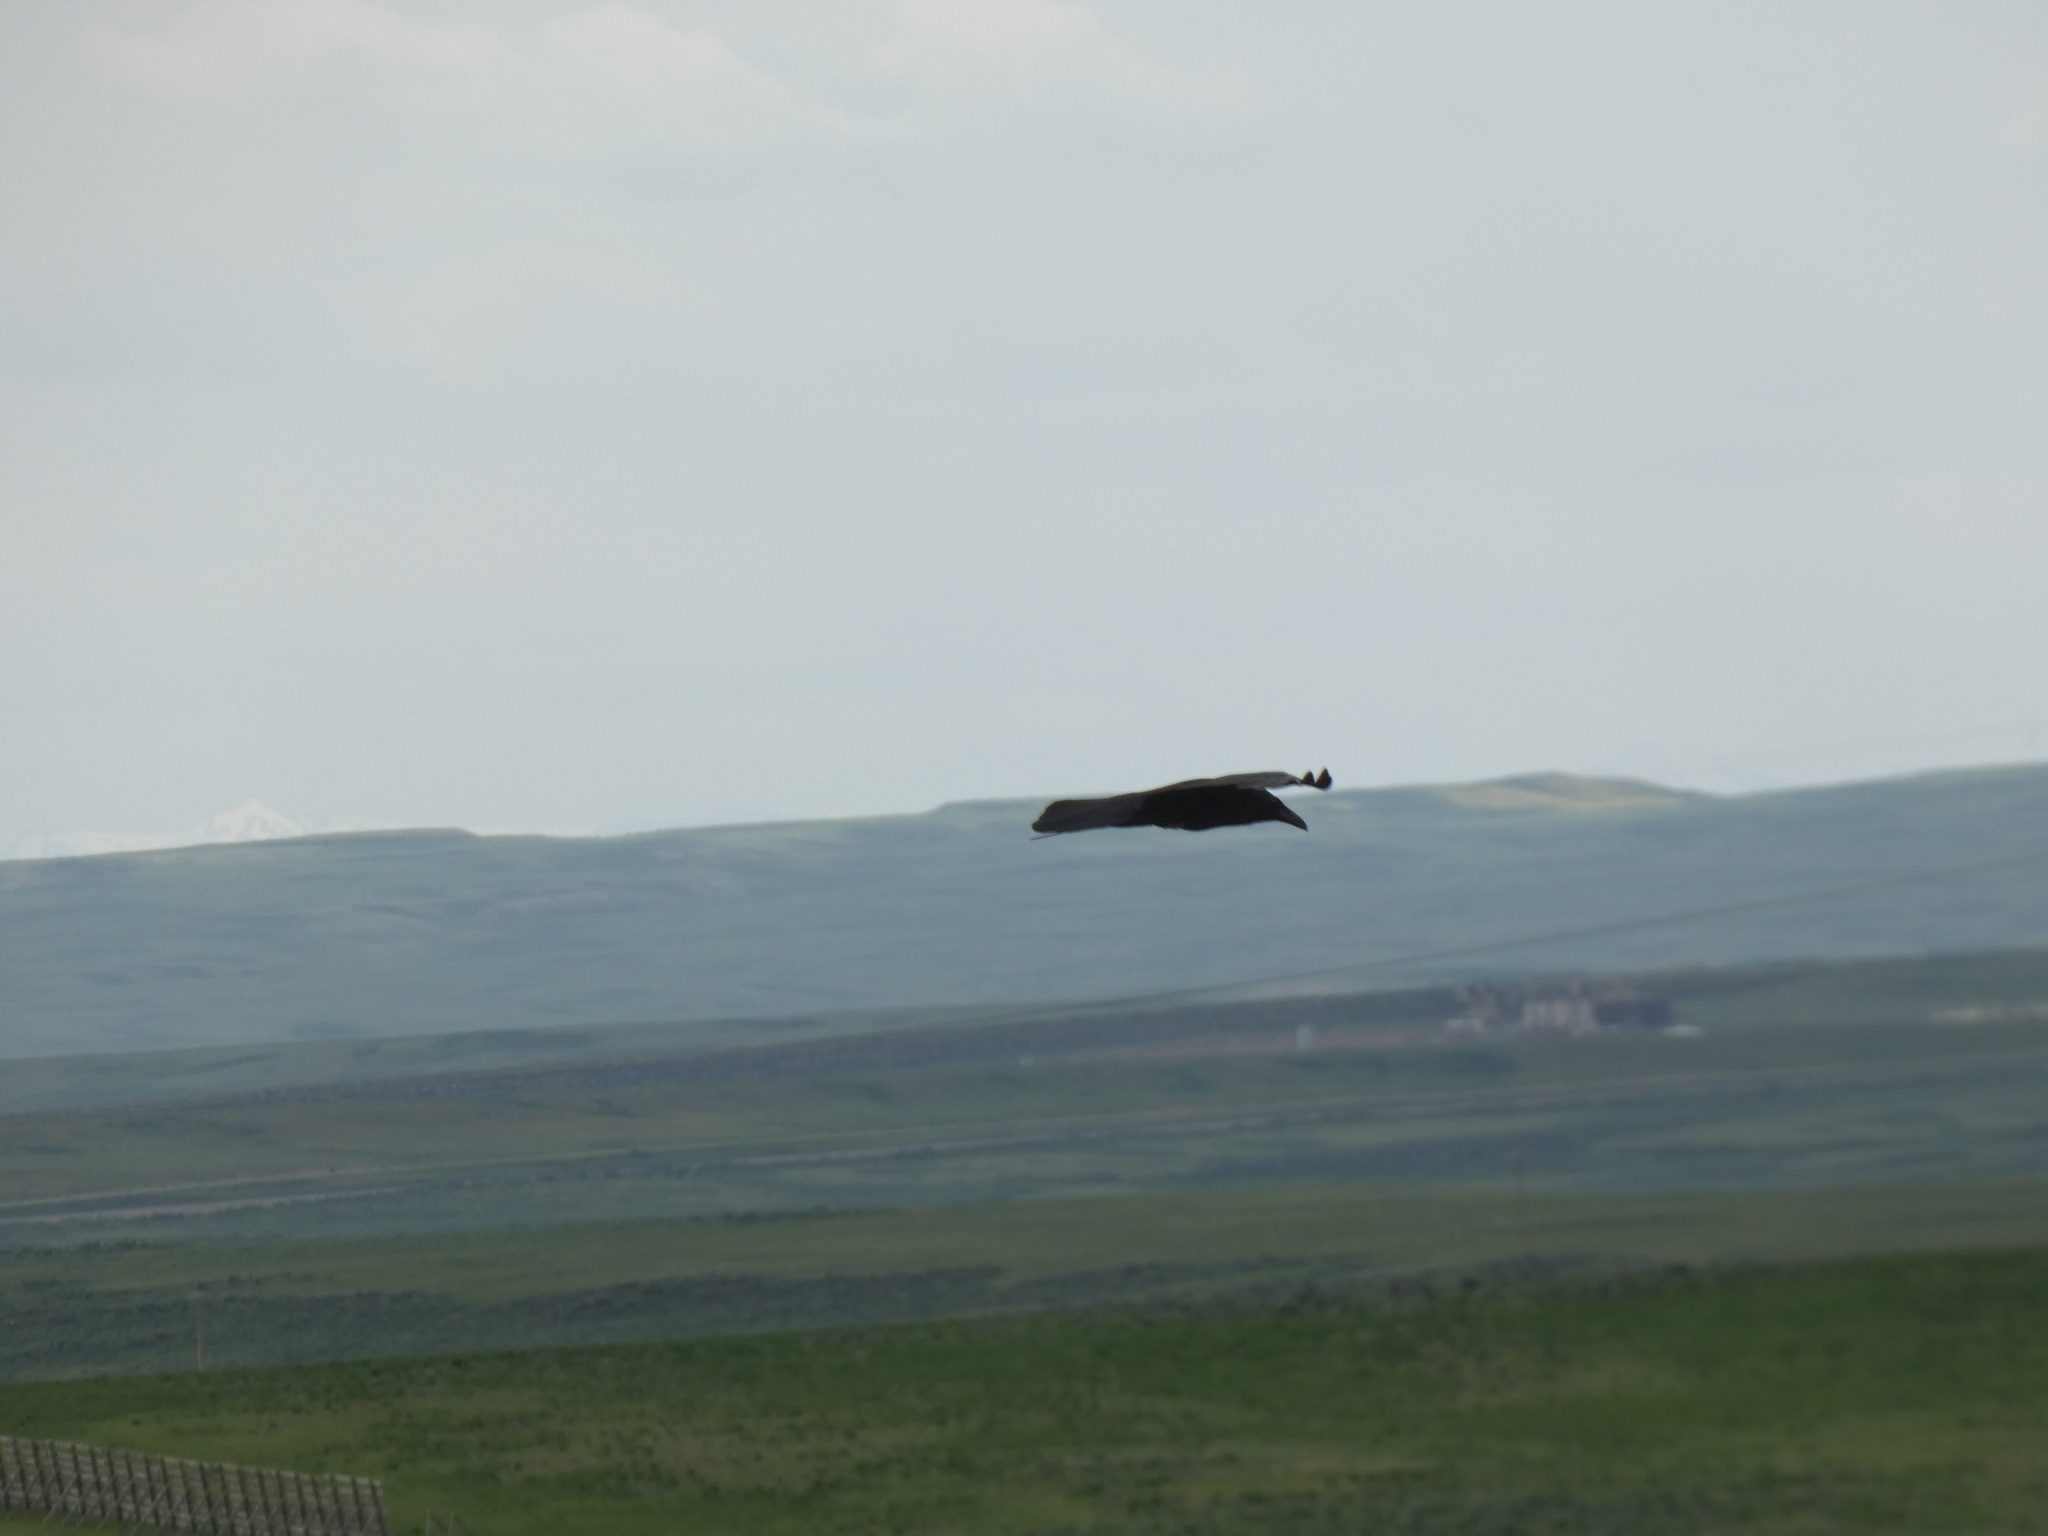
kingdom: Animalia
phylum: Chordata
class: Aves
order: Passeriformes
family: Corvidae
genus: Corvus
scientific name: Corvus corax
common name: Common raven
